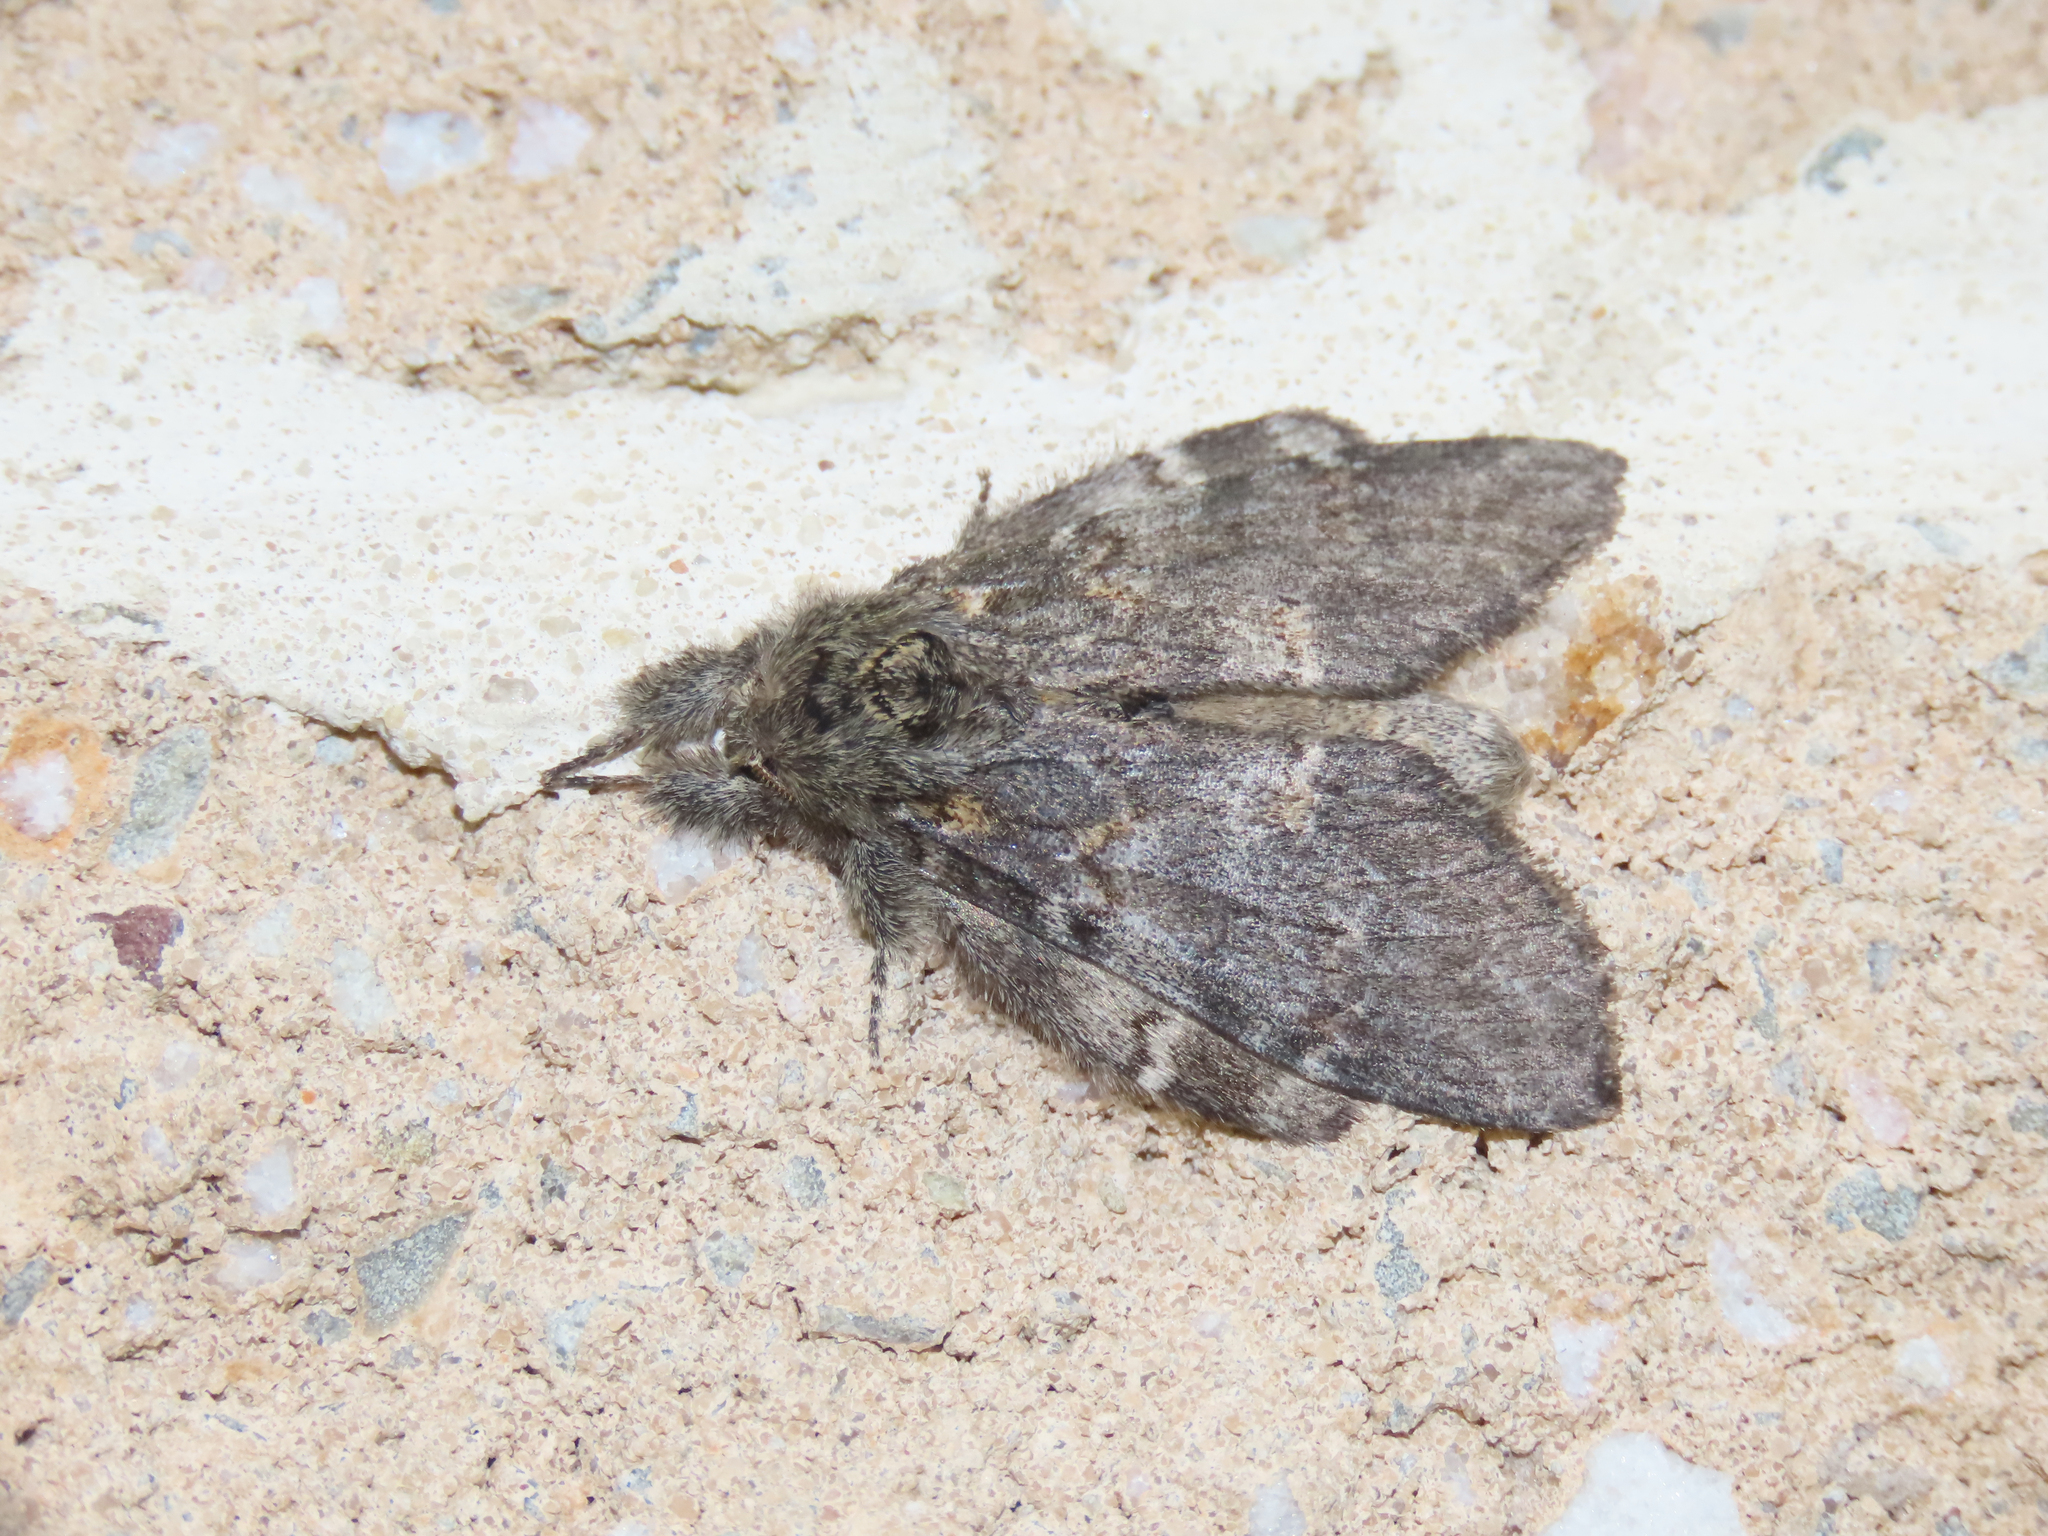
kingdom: Animalia
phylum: Arthropoda
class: Insecta
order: Lepidoptera
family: Notodontidae
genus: Peridea
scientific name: Peridea angulosa
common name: Angulose prominent
